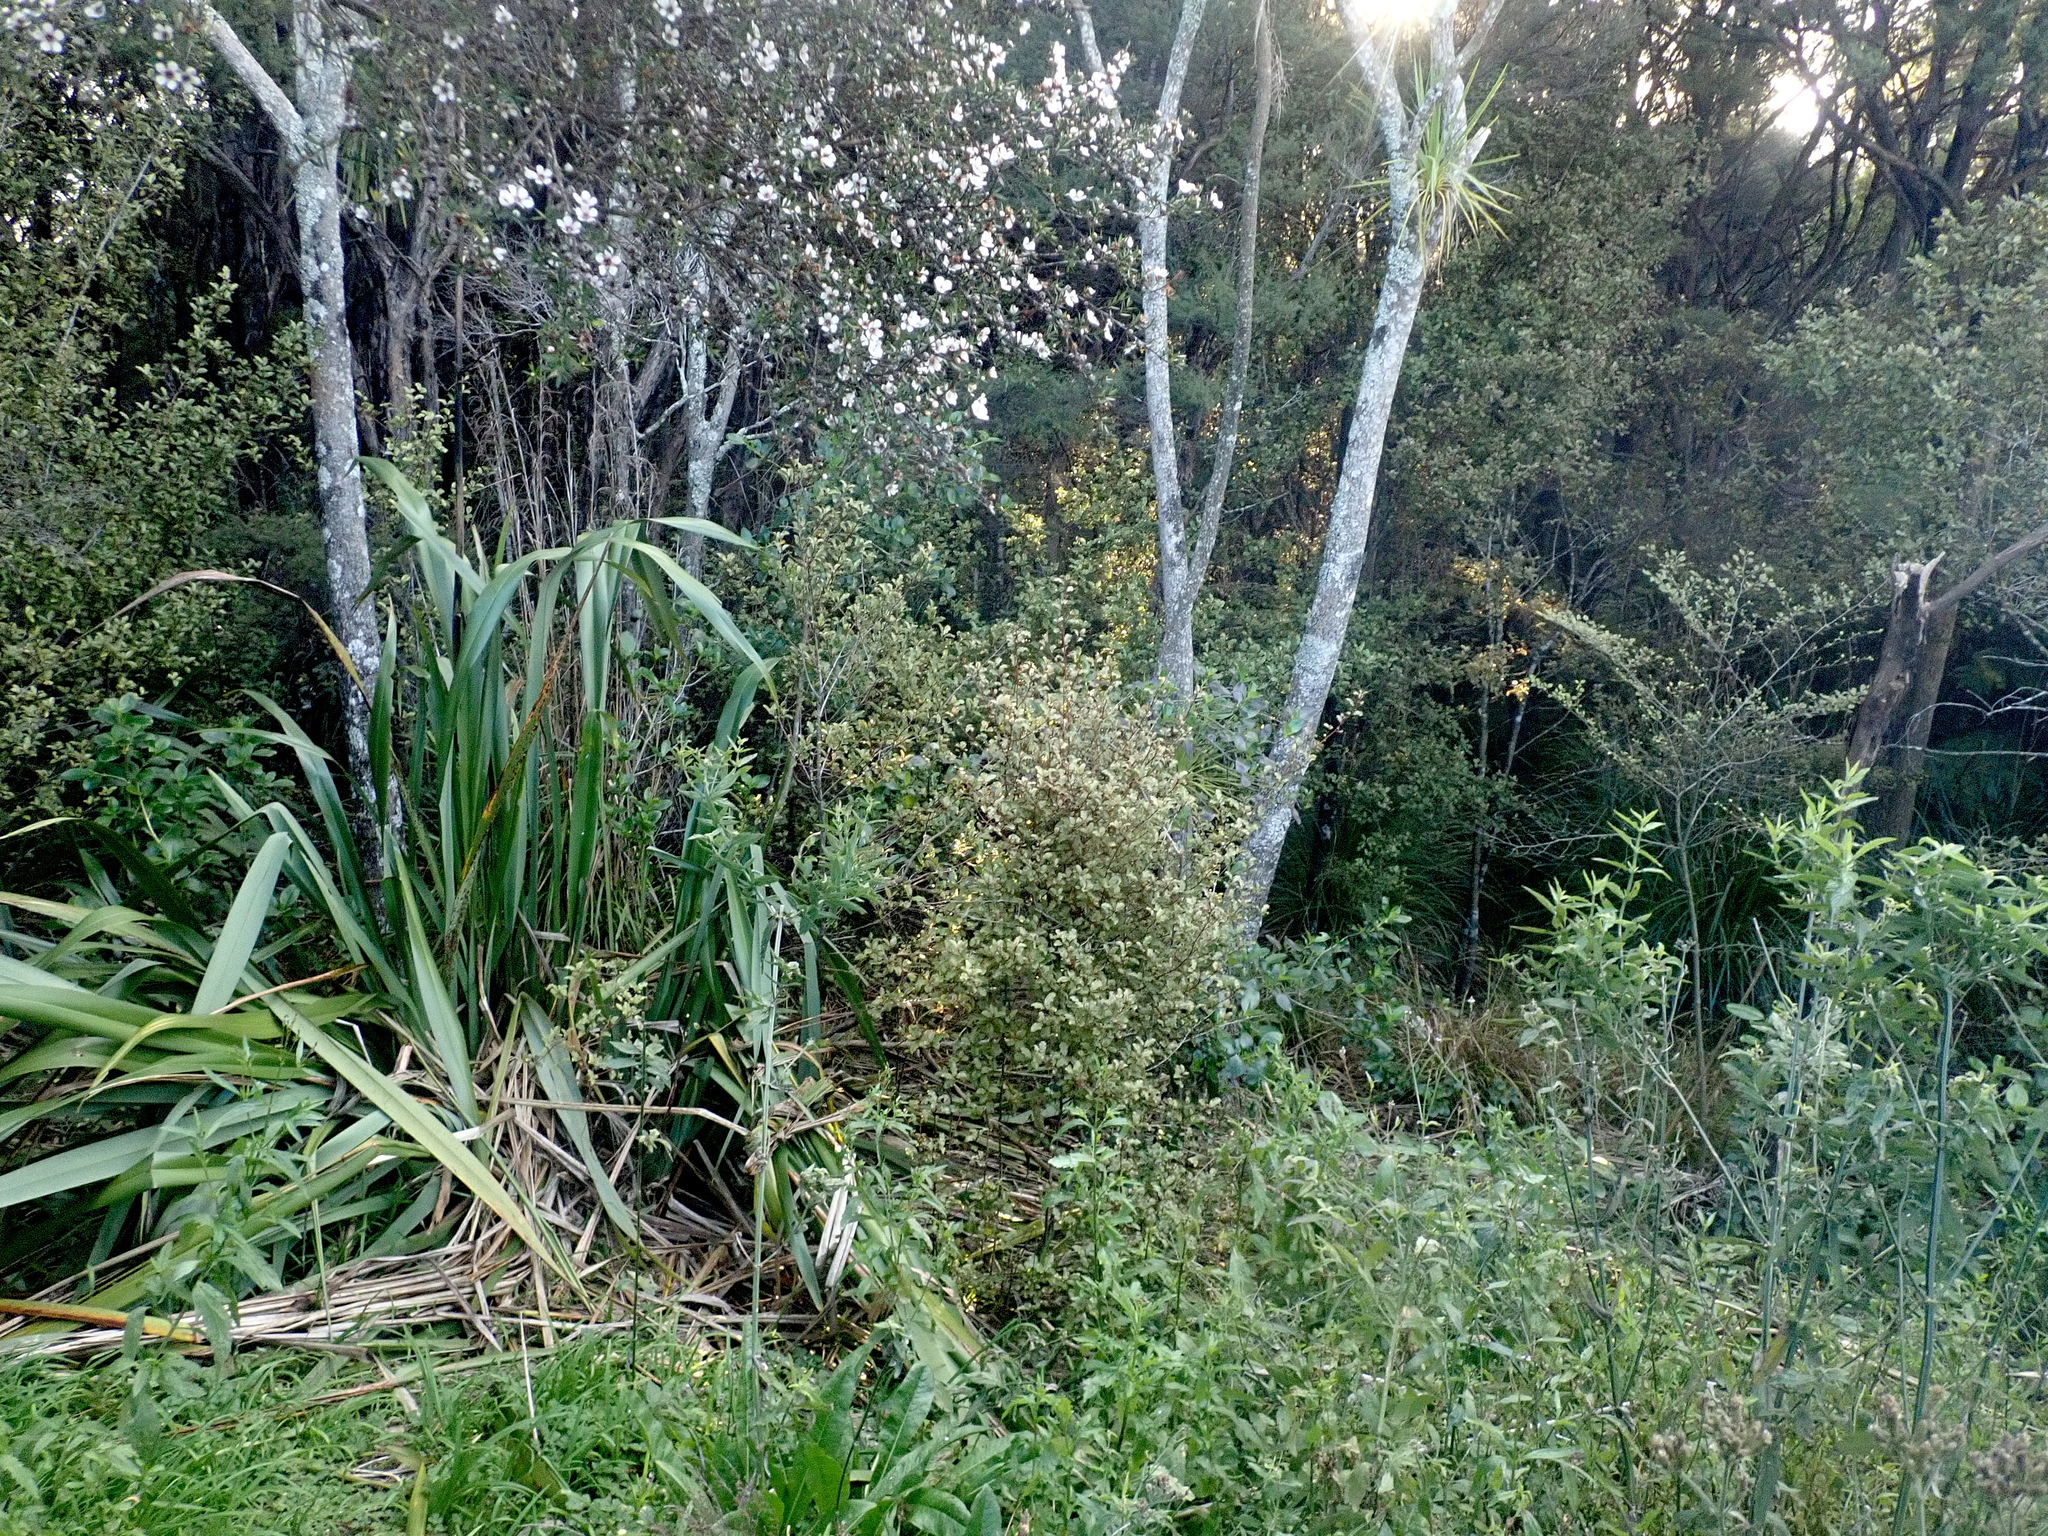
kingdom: Plantae
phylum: Tracheophyta
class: Magnoliopsida
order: Lamiales
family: Verbenaceae
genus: Verbena
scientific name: Verbena incompta
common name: Purpletop vervain
